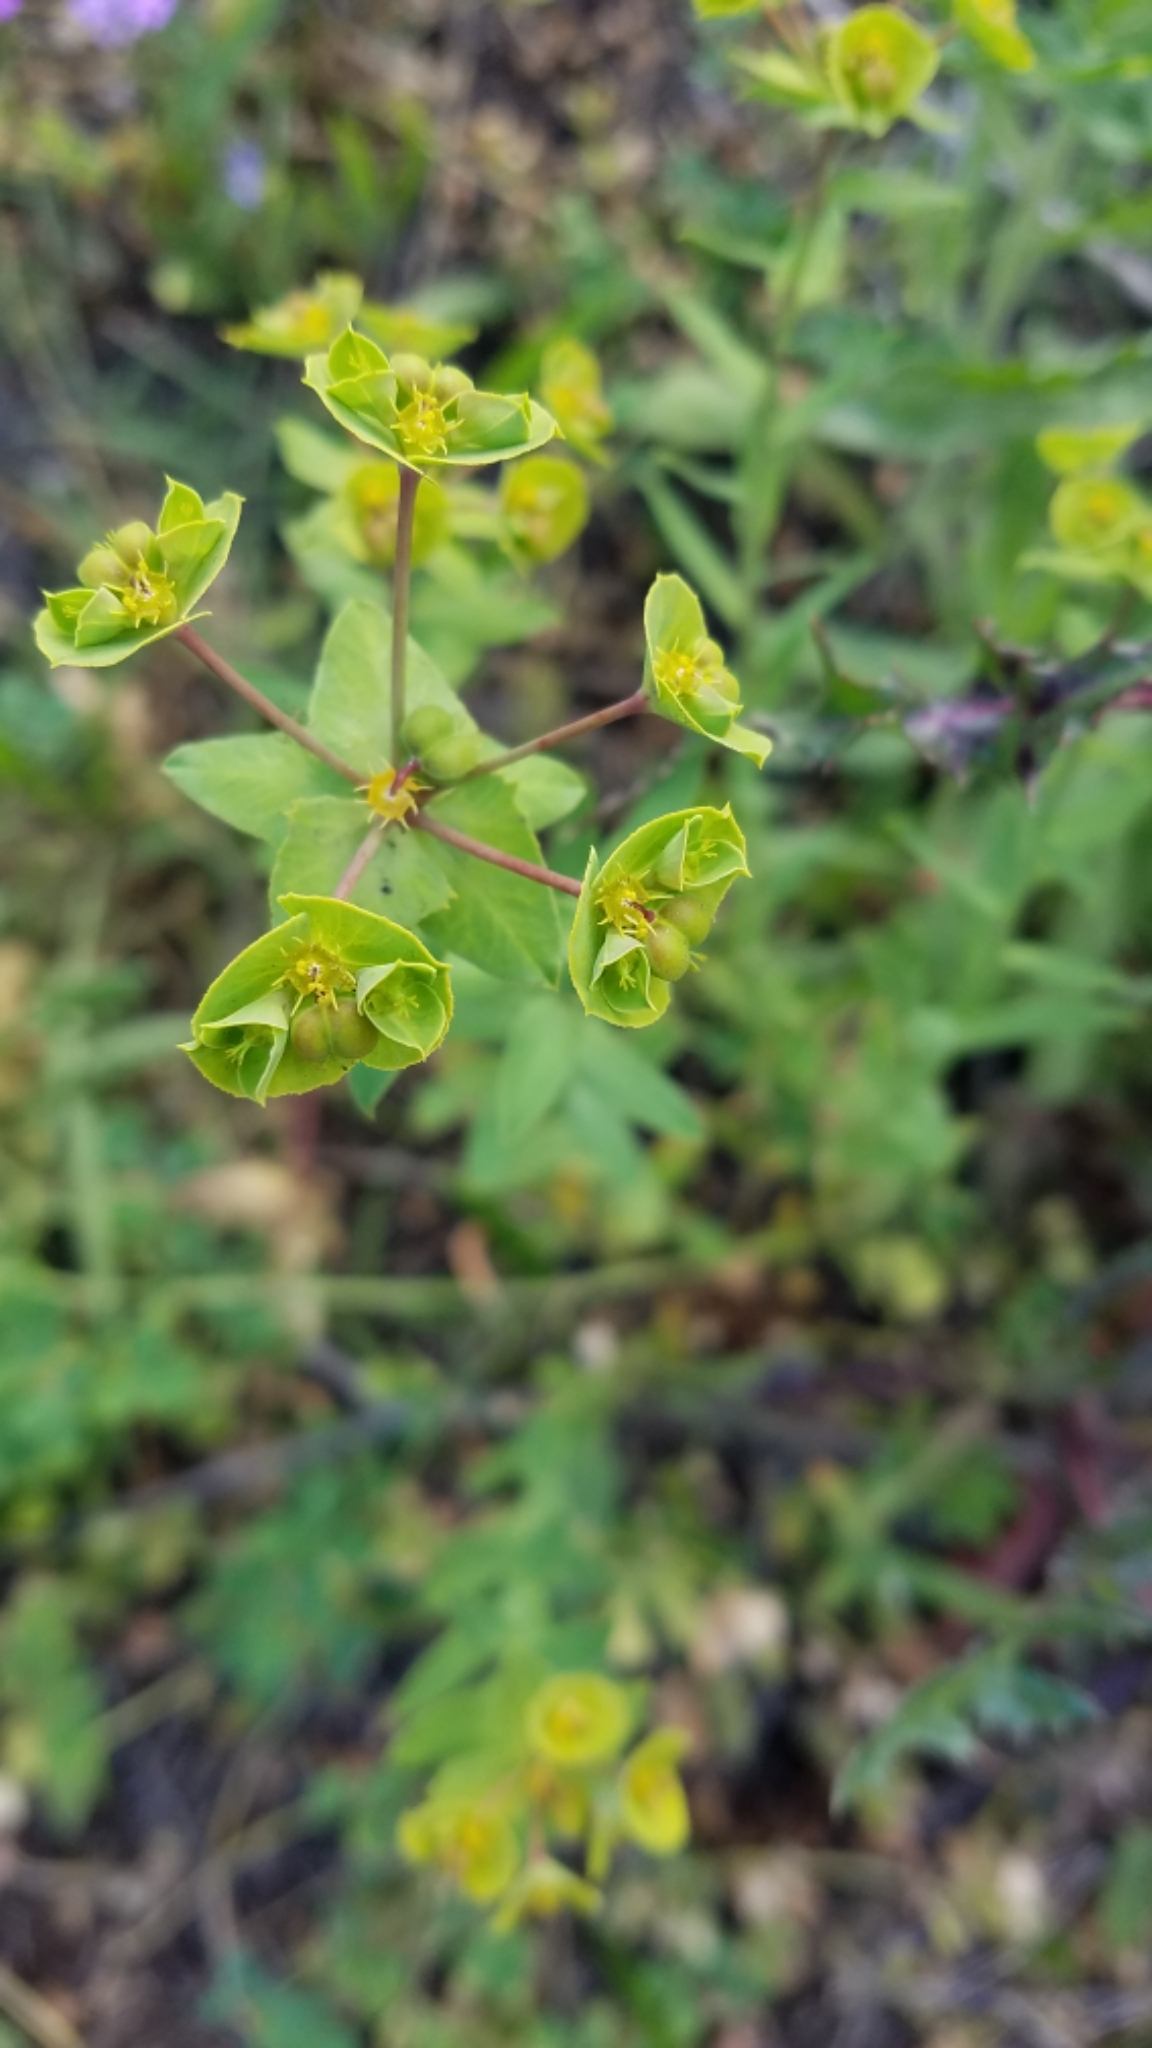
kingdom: Plantae
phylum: Tracheophyta
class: Magnoliopsida
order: Malpighiales
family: Euphorbiaceae
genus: Euphorbia
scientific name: Euphorbia terracina
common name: Geraldton carnation weed
